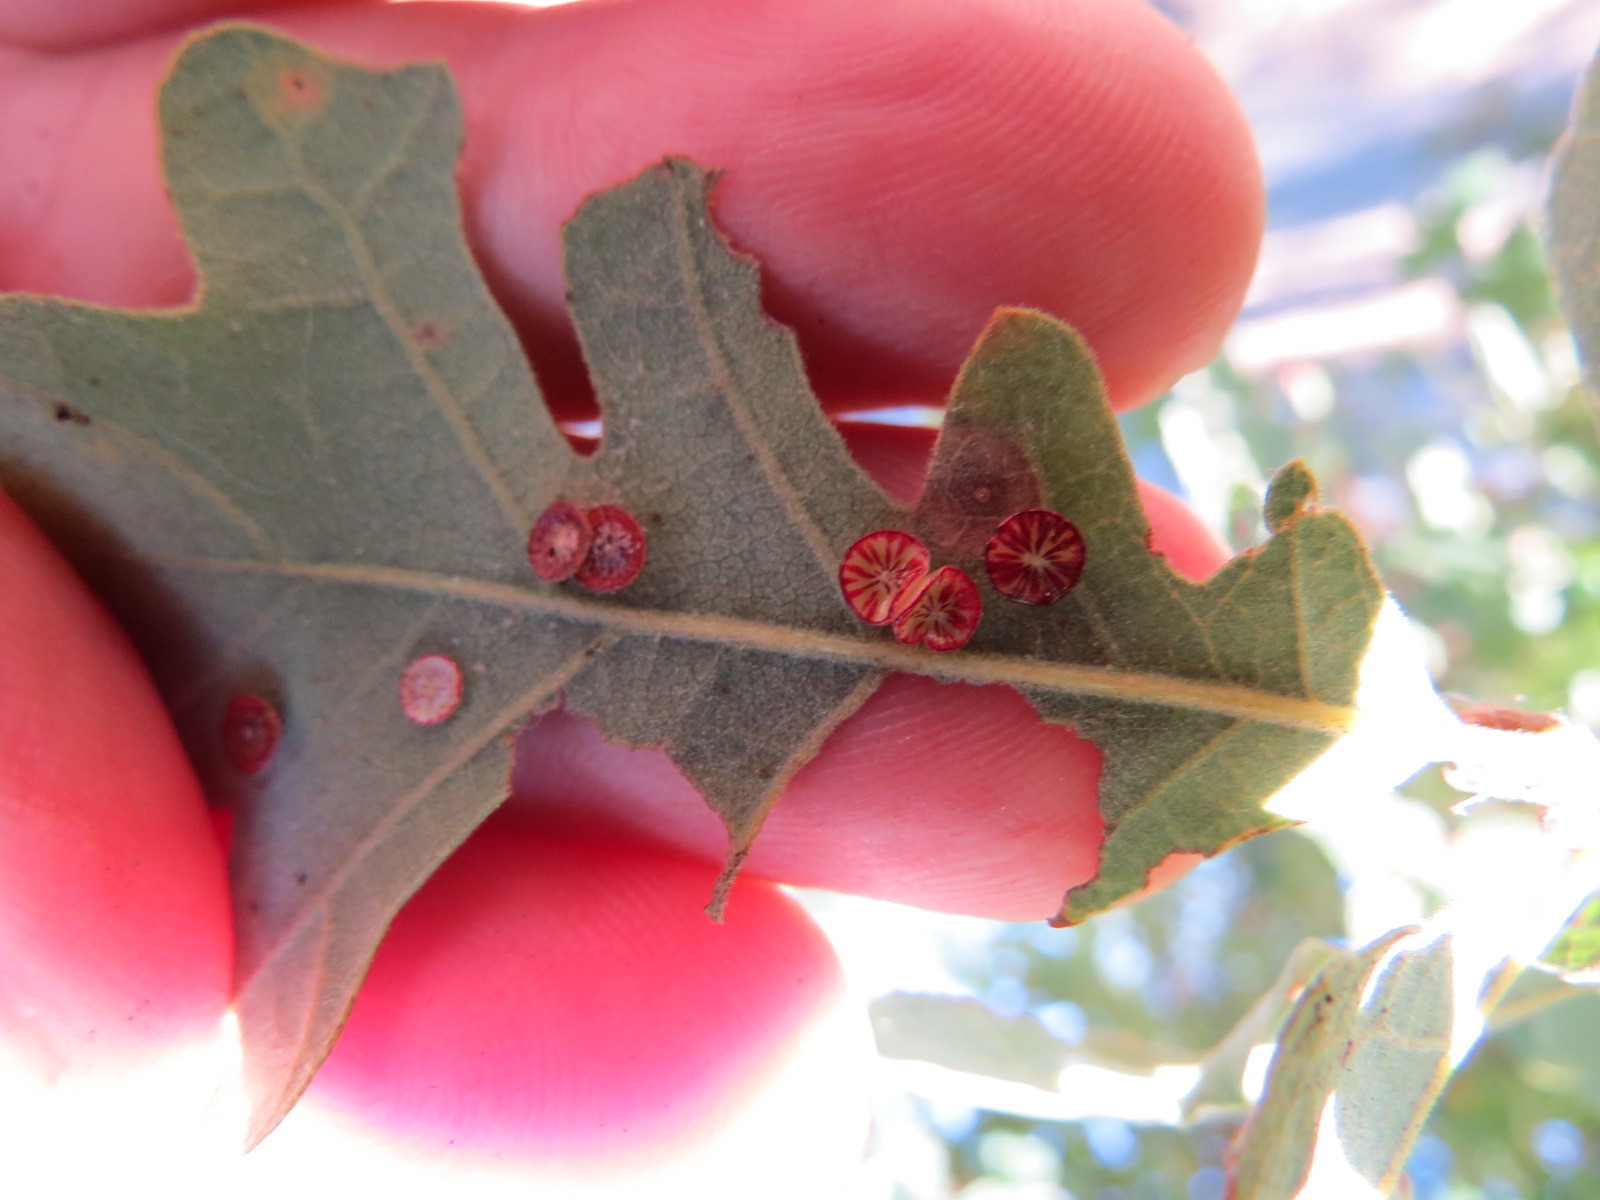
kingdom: Animalia
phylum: Arthropoda
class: Insecta
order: Hymenoptera
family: Cynipidae
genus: Andricus
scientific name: Andricus
